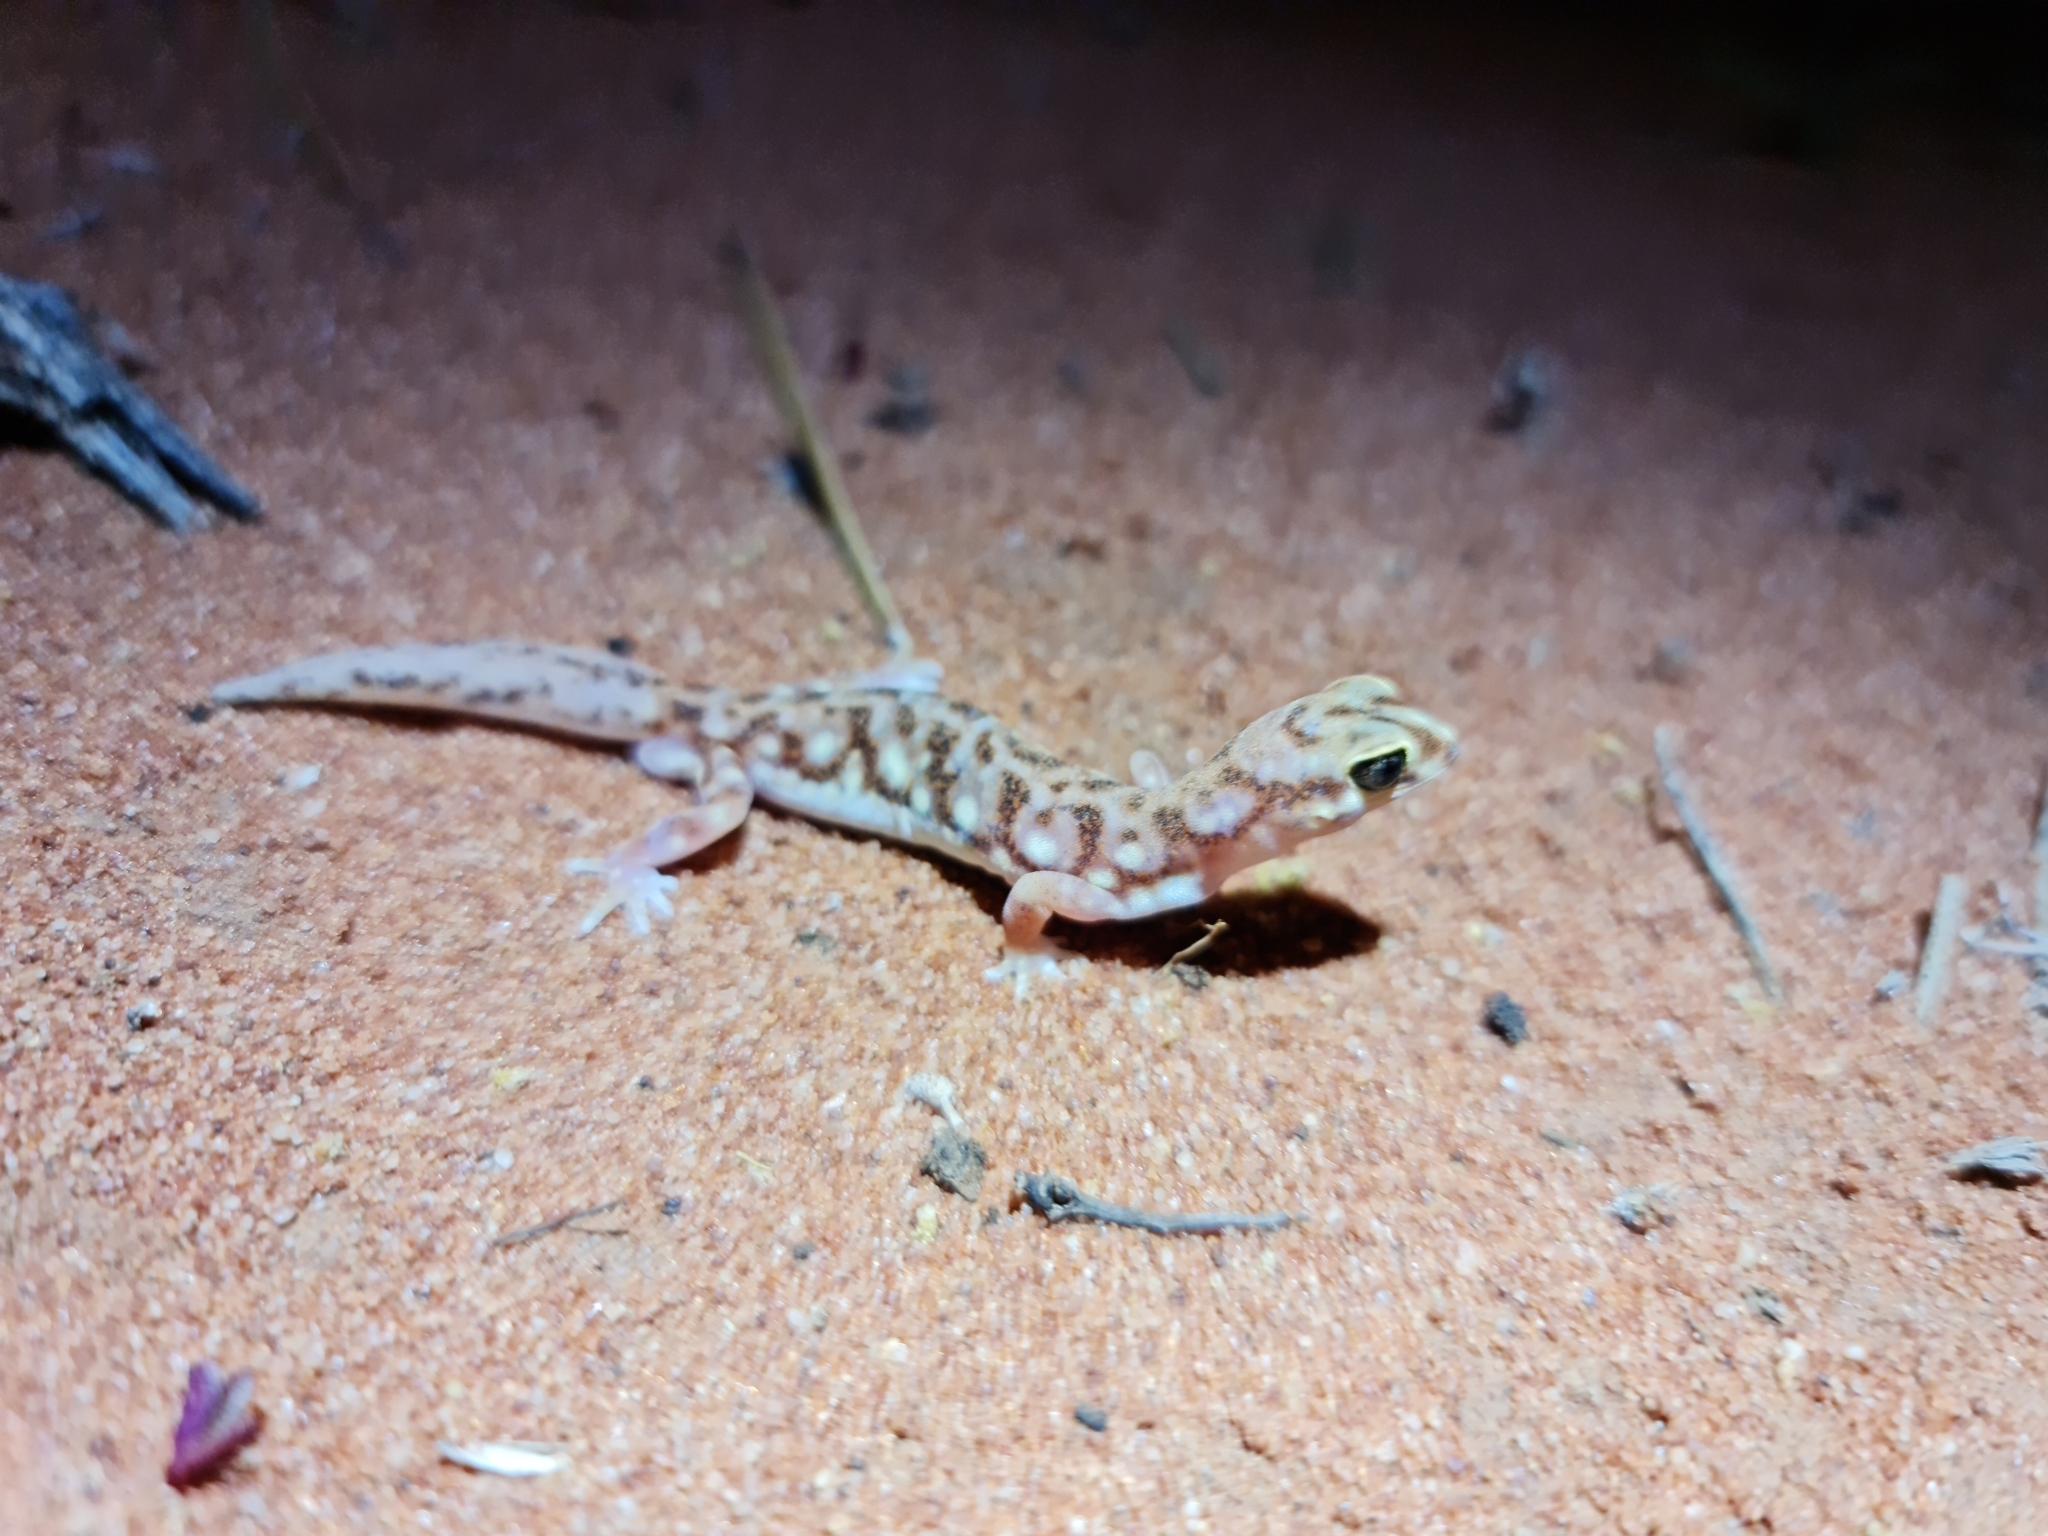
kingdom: Animalia
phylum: Chordata
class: Squamata
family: Diplodactylidae
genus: Rhynchoedura
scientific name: Rhynchoedura eyrensis
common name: Eyre basin beaked gecko
